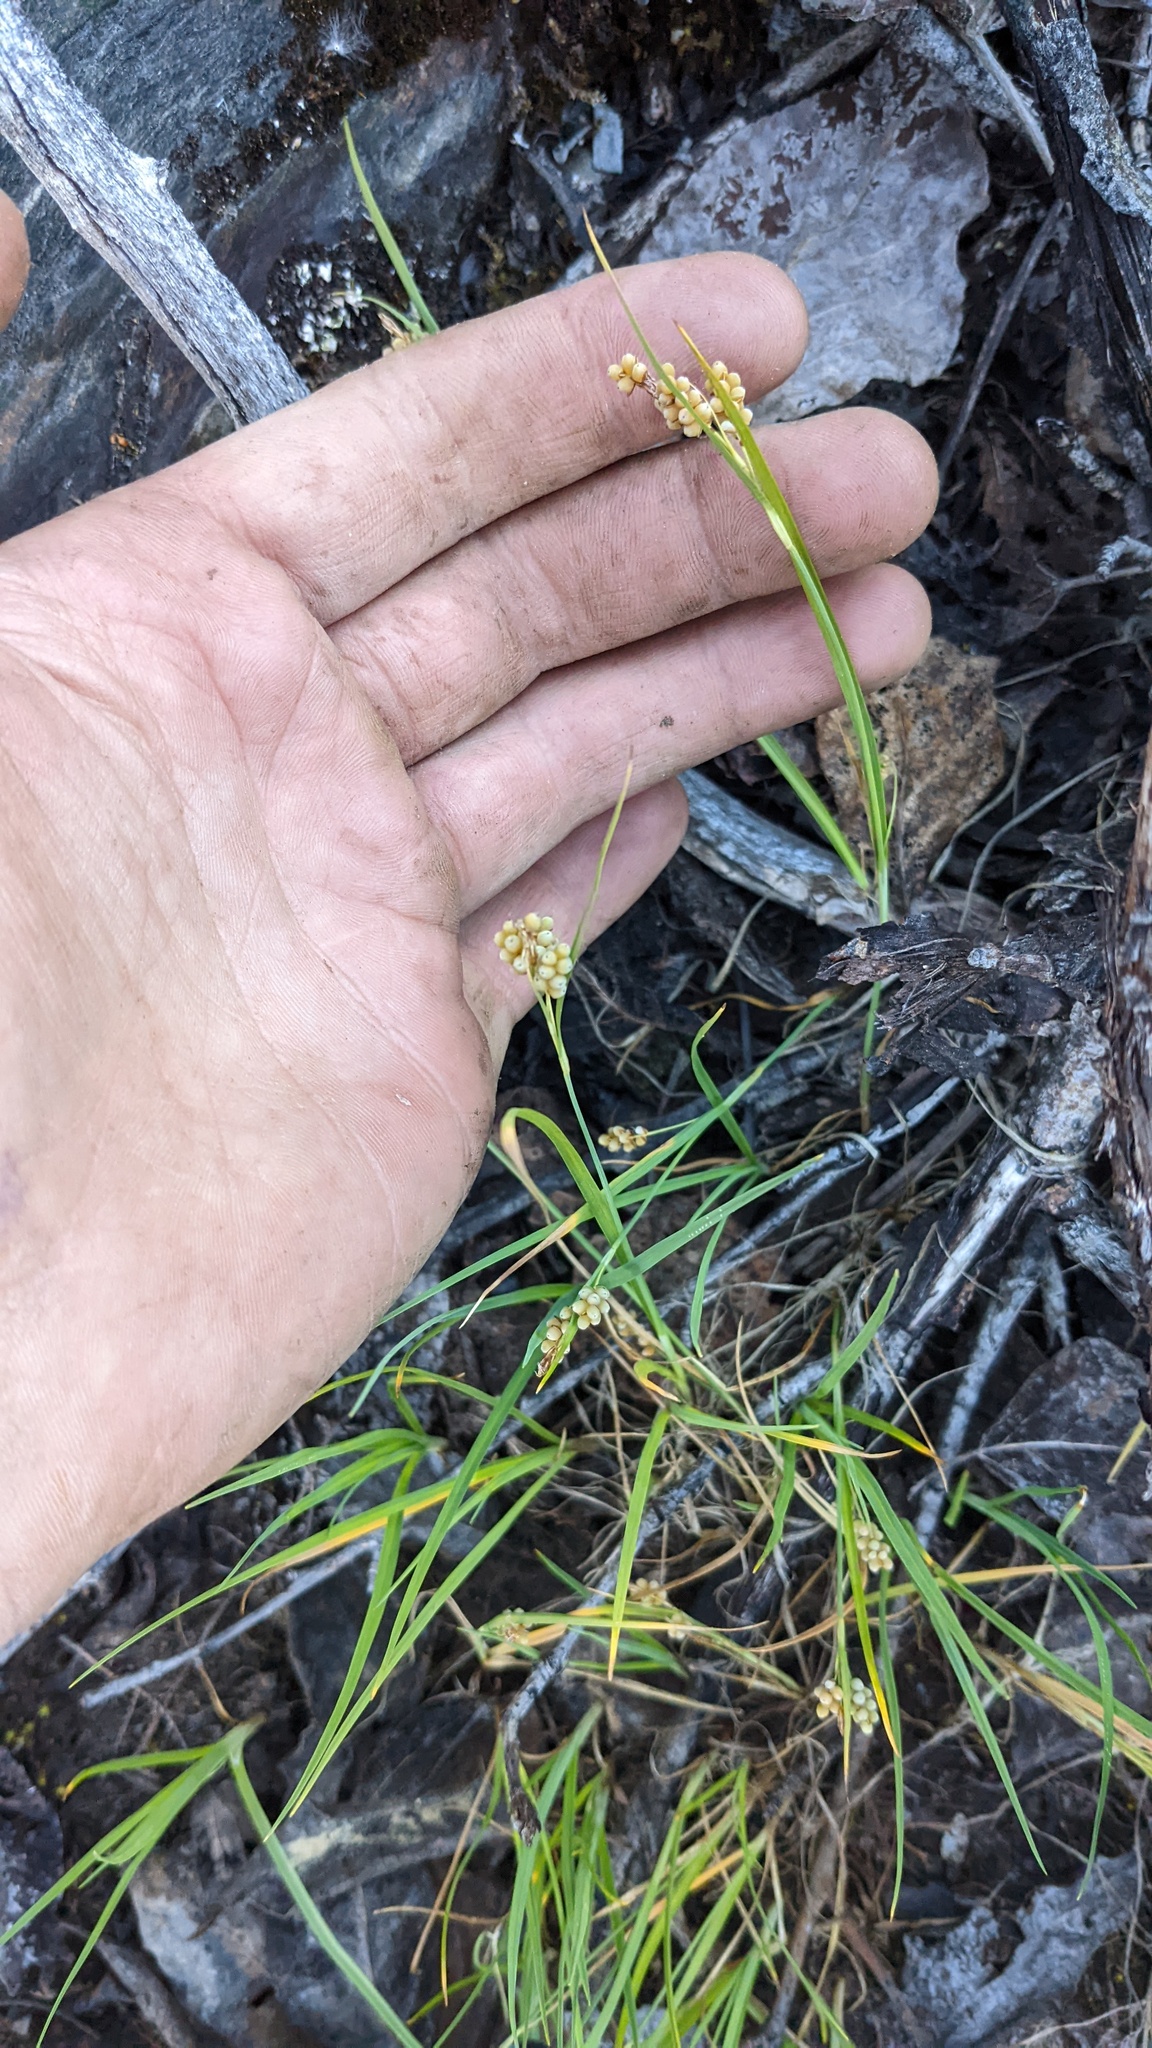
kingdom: Plantae
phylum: Tracheophyta
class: Liliopsida
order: Poales
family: Cyperaceae
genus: Carex
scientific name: Carex aurea
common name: Golden sedge
